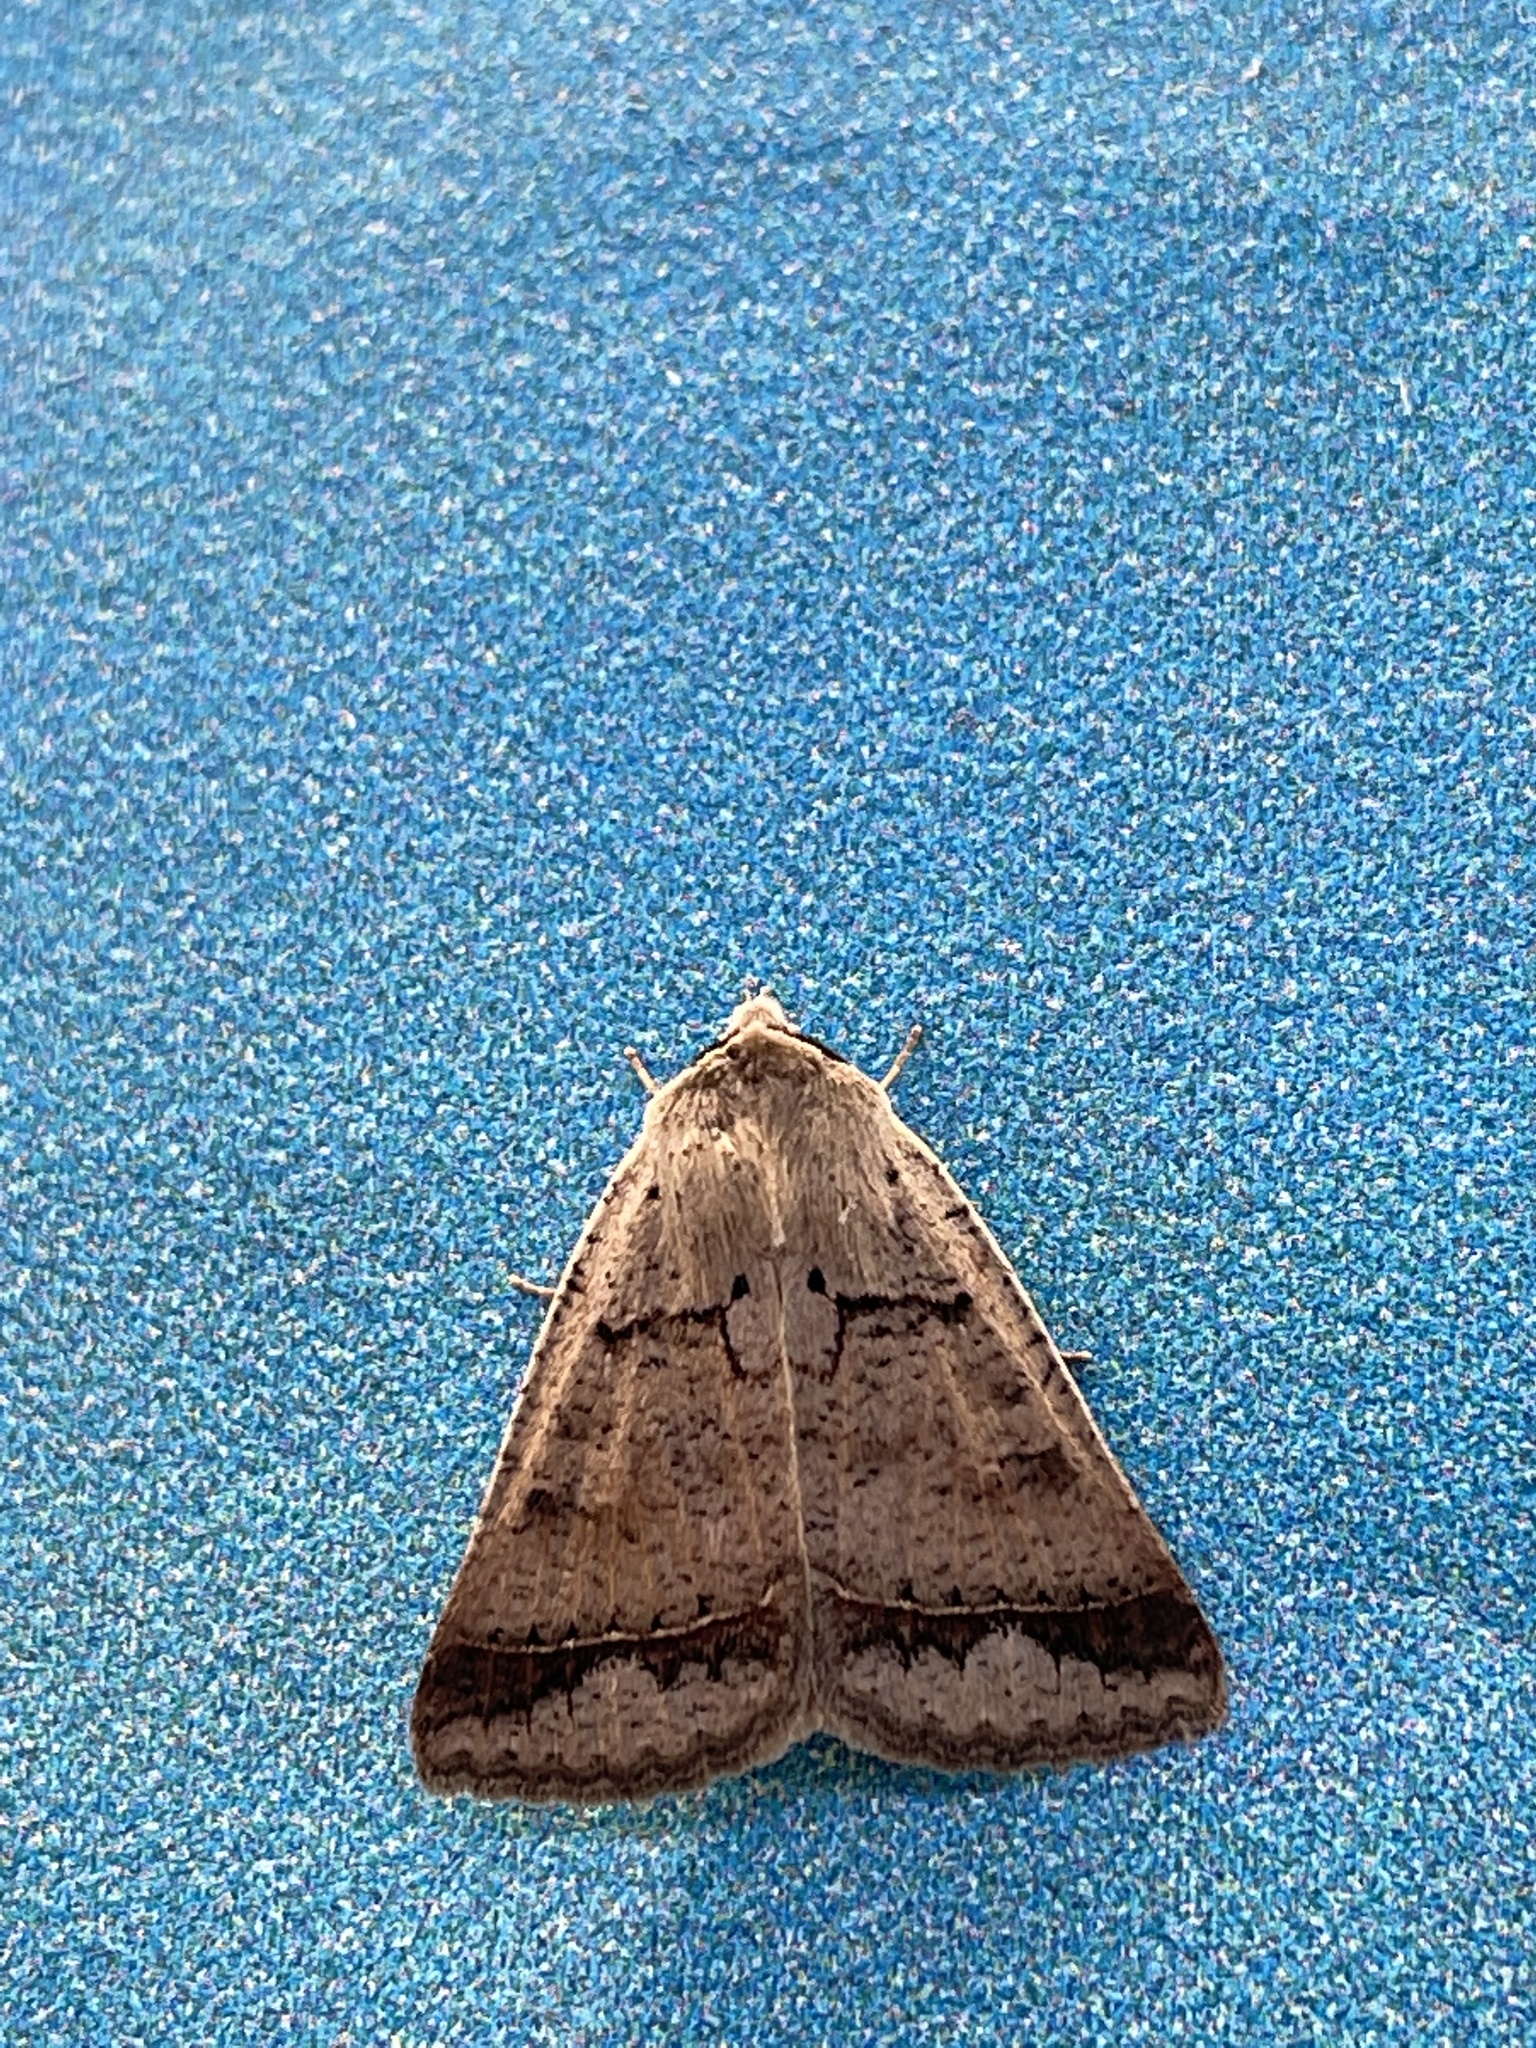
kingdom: Animalia
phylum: Arthropoda
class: Insecta
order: Lepidoptera
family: Erebidae
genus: Pantydia
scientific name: Pantydia sparsa
